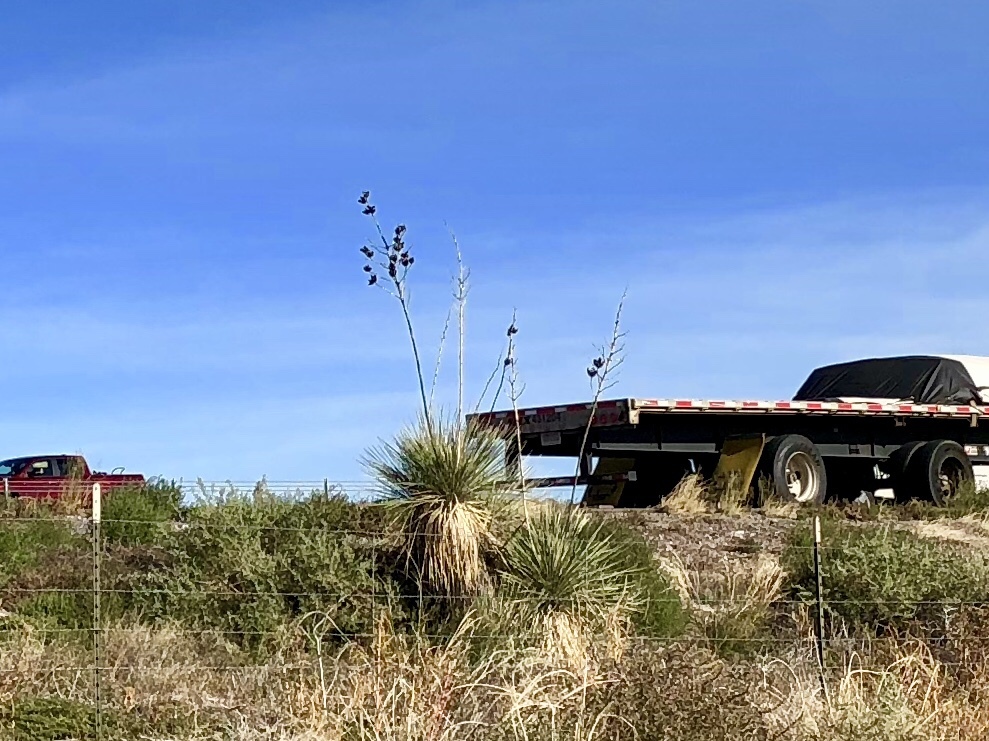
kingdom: Plantae
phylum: Tracheophyta
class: Liliopsida
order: Asparagales
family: Asparagaceae
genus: Yucca
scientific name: Yucca elata
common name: Palmella
